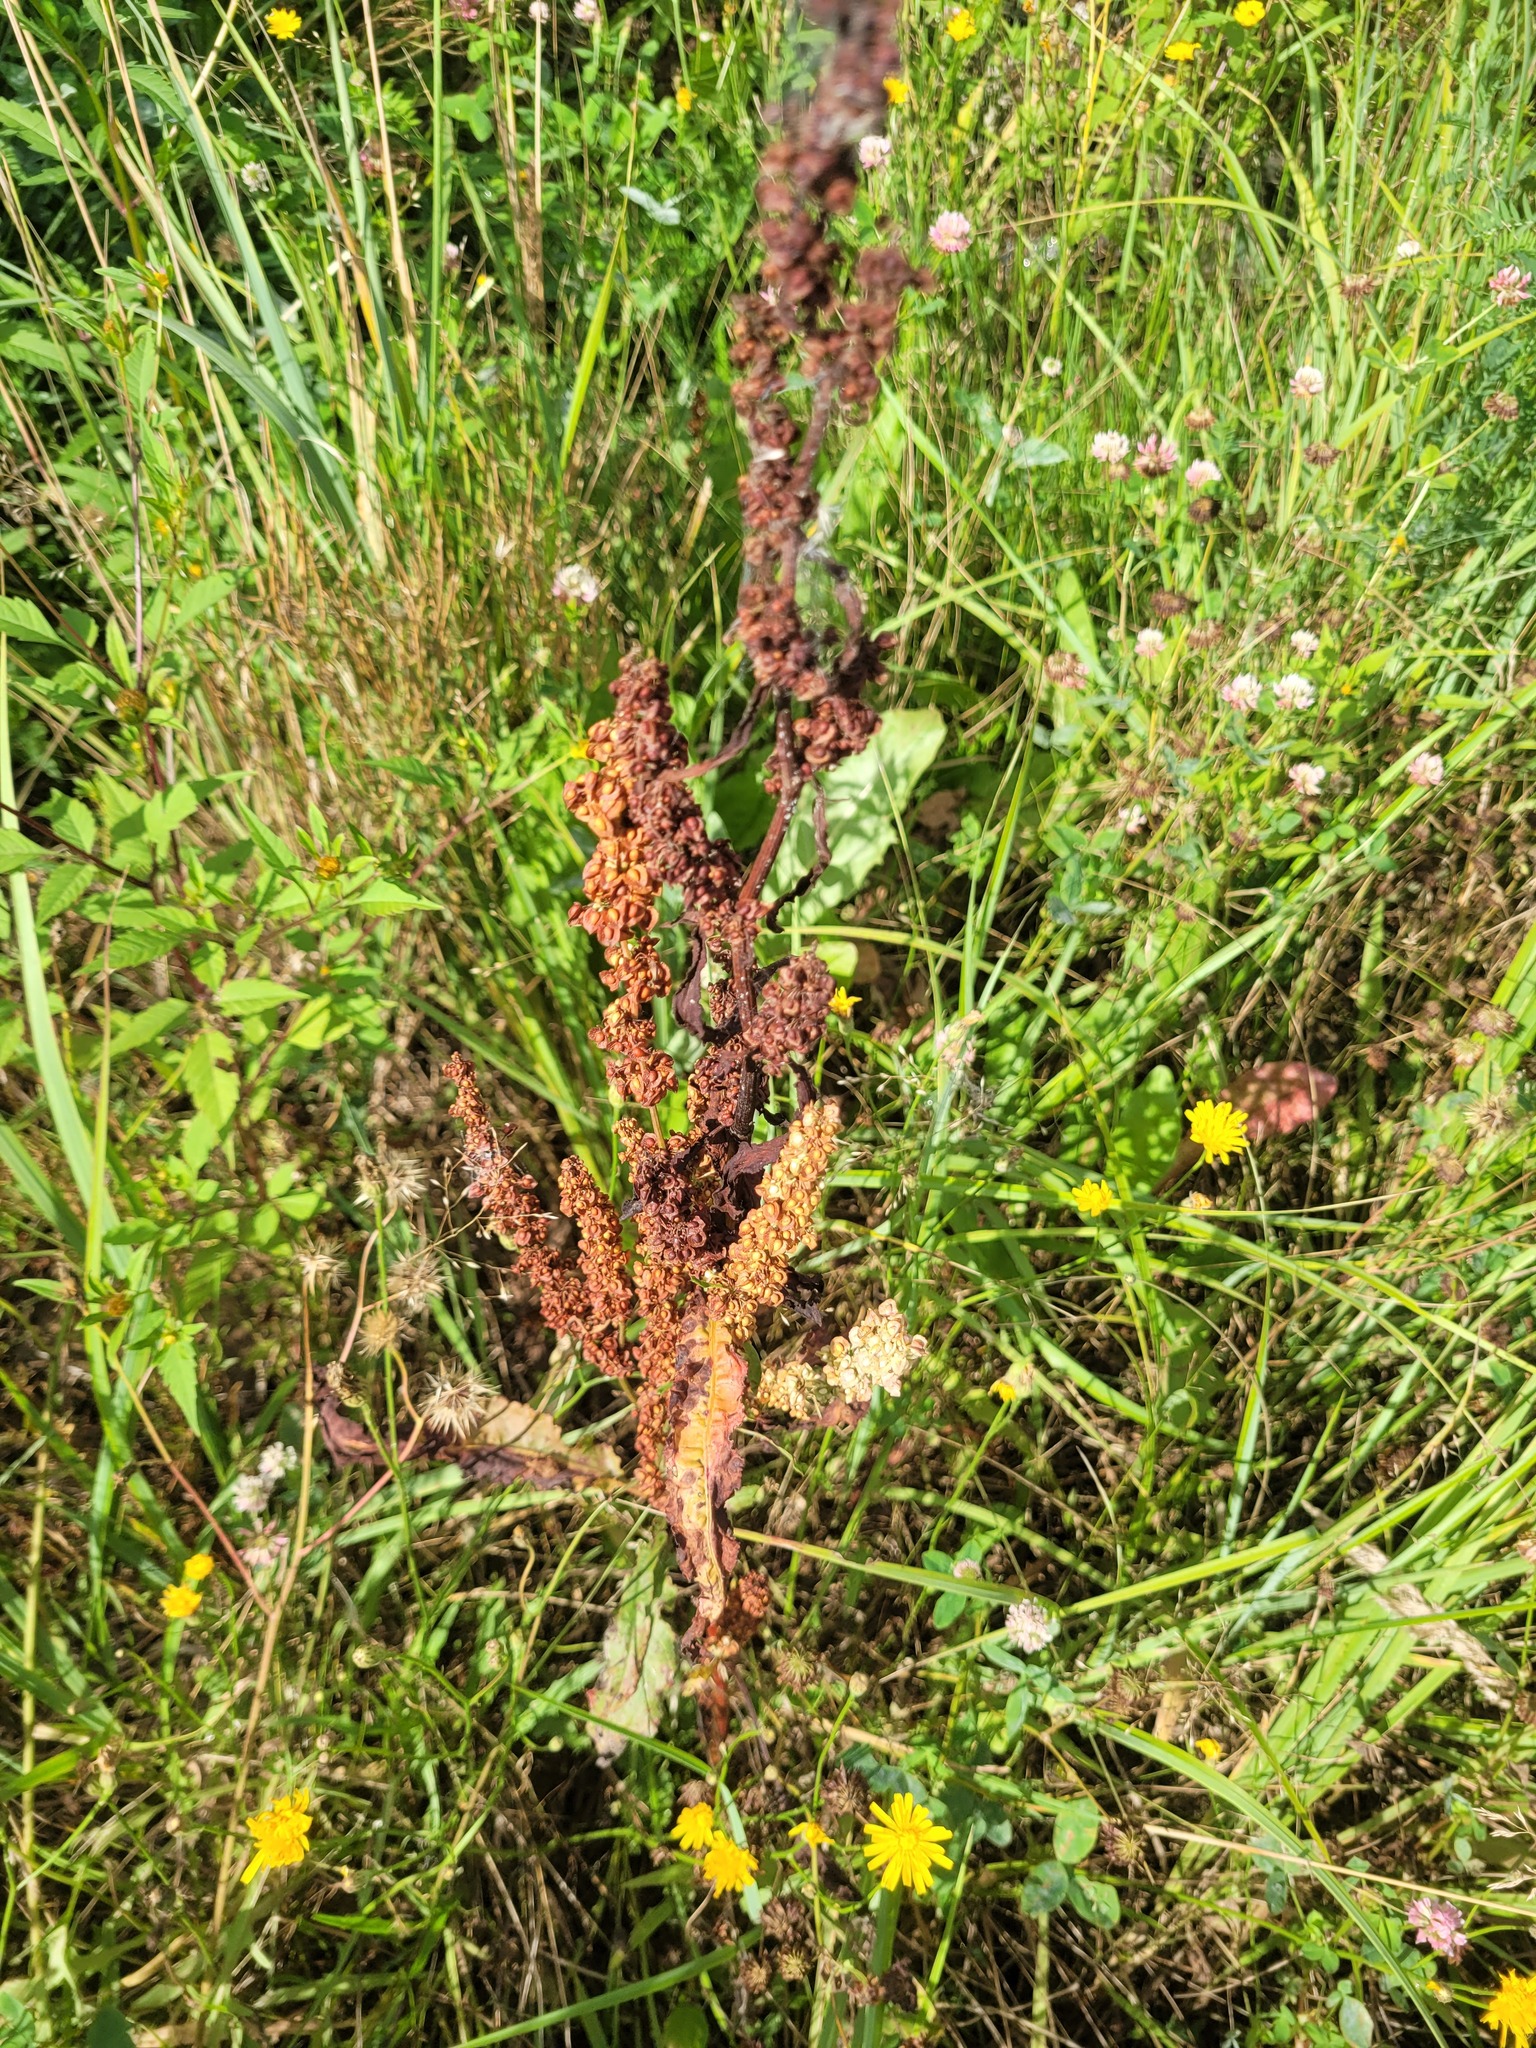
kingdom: Plantae
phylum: Tracheophyta
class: Magnoliopsida
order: Caryophyllales
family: Polygonaceae
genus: Rumex
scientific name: Rumex crispus
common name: Curled dock
